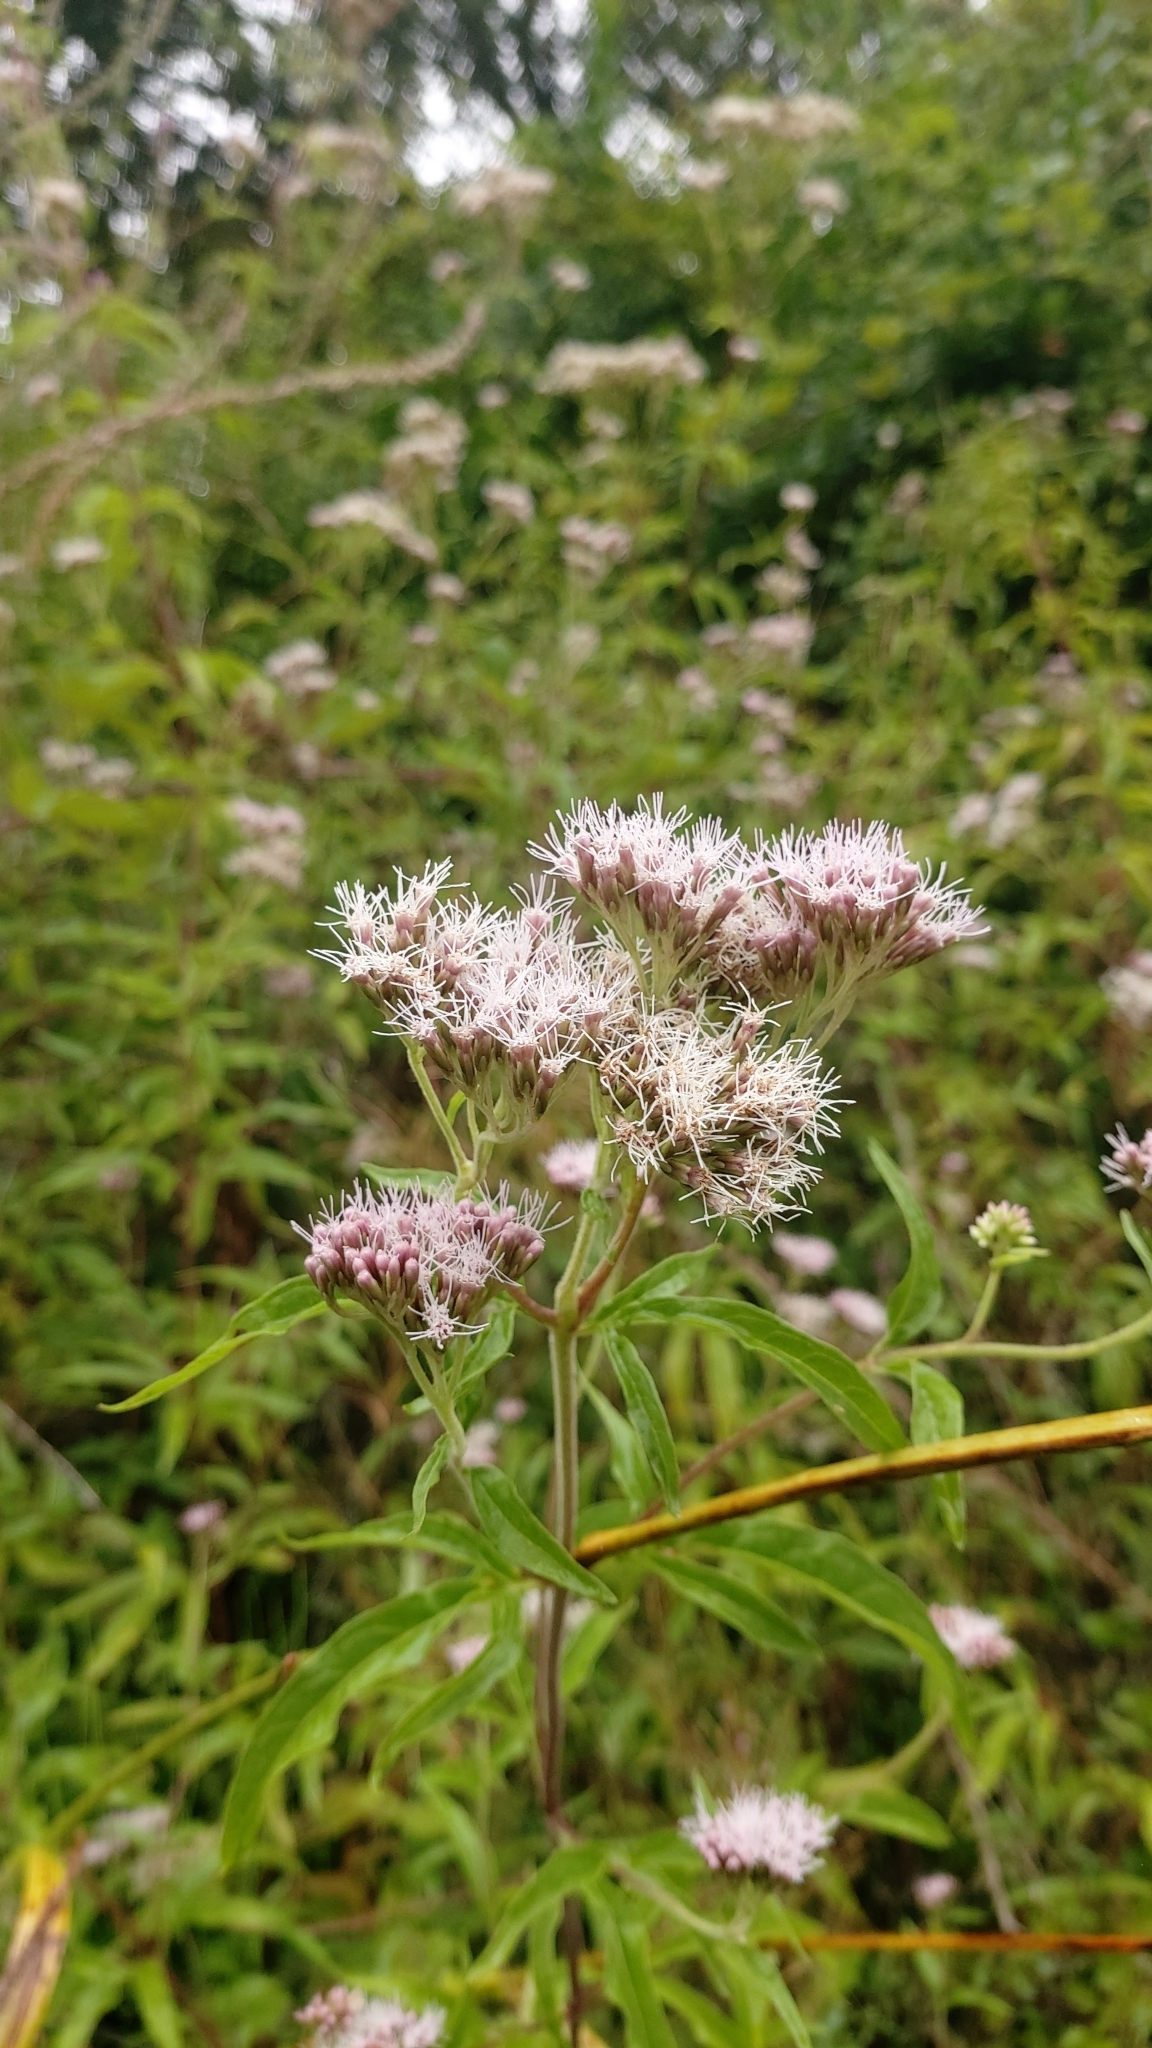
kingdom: Plantae
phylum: Tracheophyta
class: Magnoliopsida
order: Asterales
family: Asteraceae
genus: Eupatorium
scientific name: Eupatorium cannabinum
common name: Hemp-agrimony
